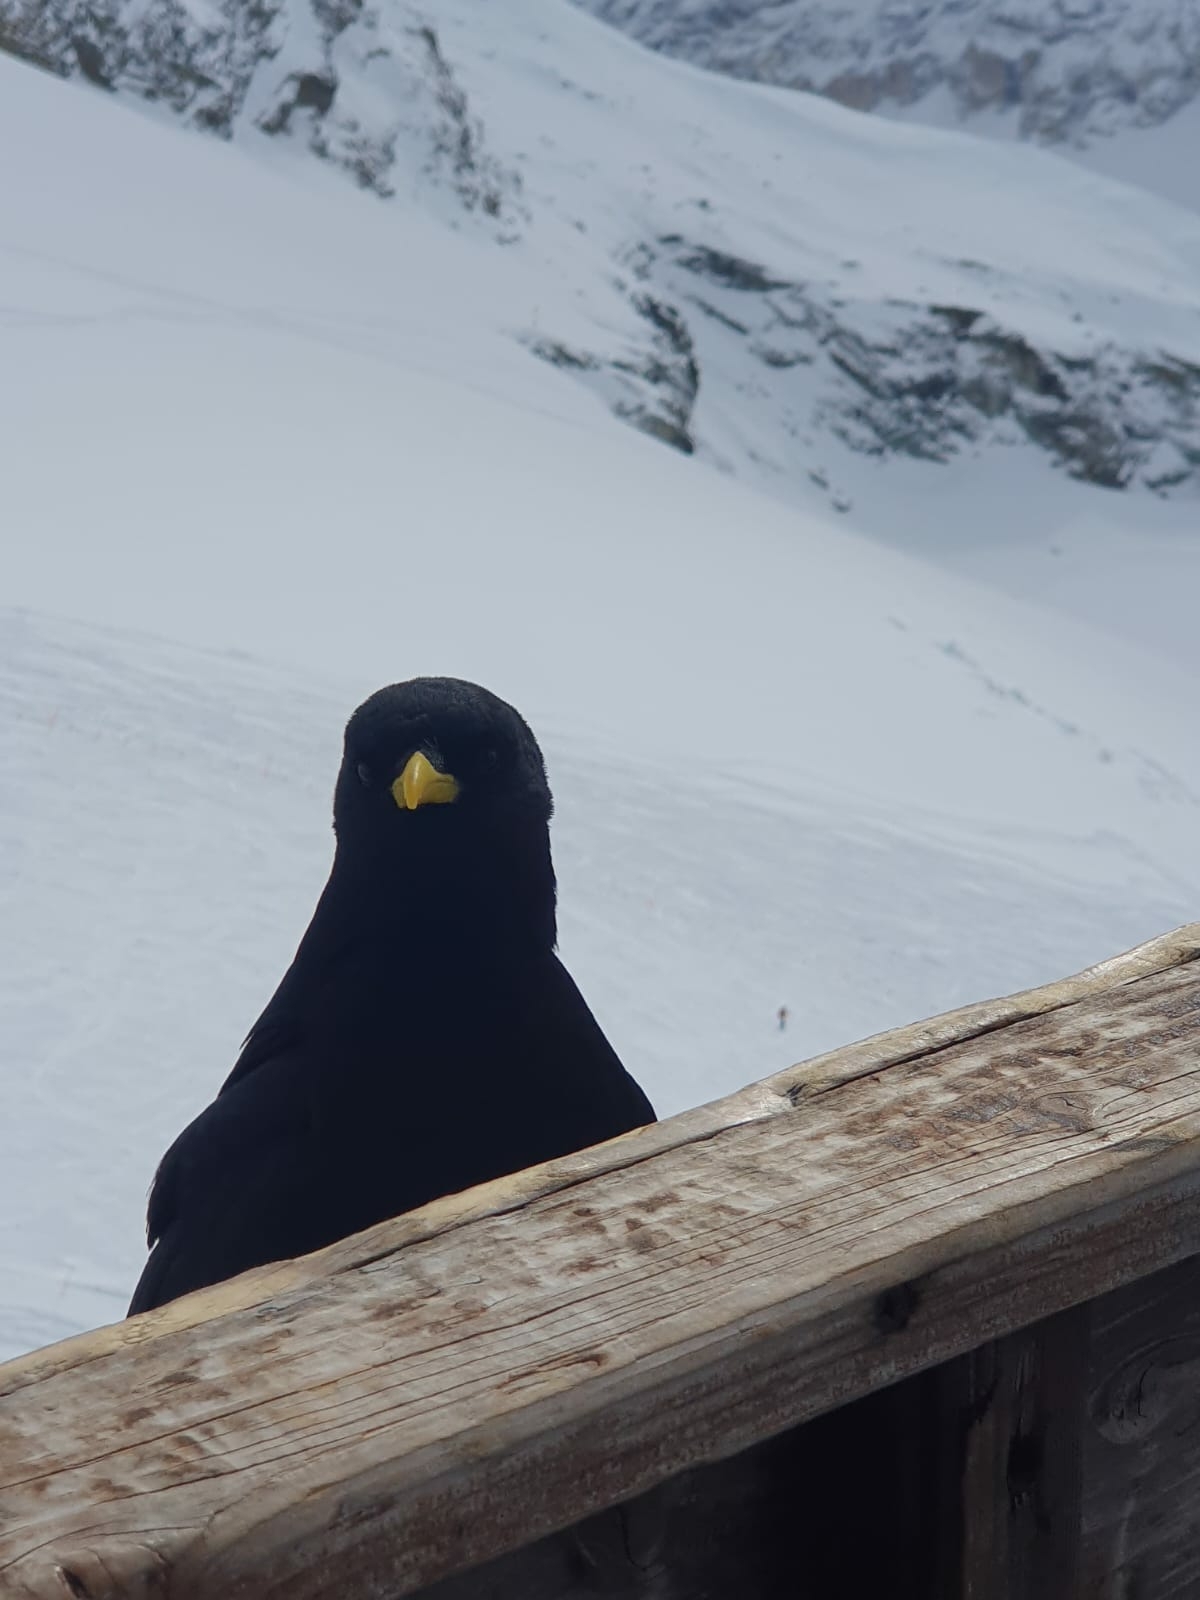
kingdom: Animalia
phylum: Chordata
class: Aves
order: Passeriformes
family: Corvidae
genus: Pyrrhocorax
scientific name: Pyrrhocorax graculus
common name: Alpine chough
